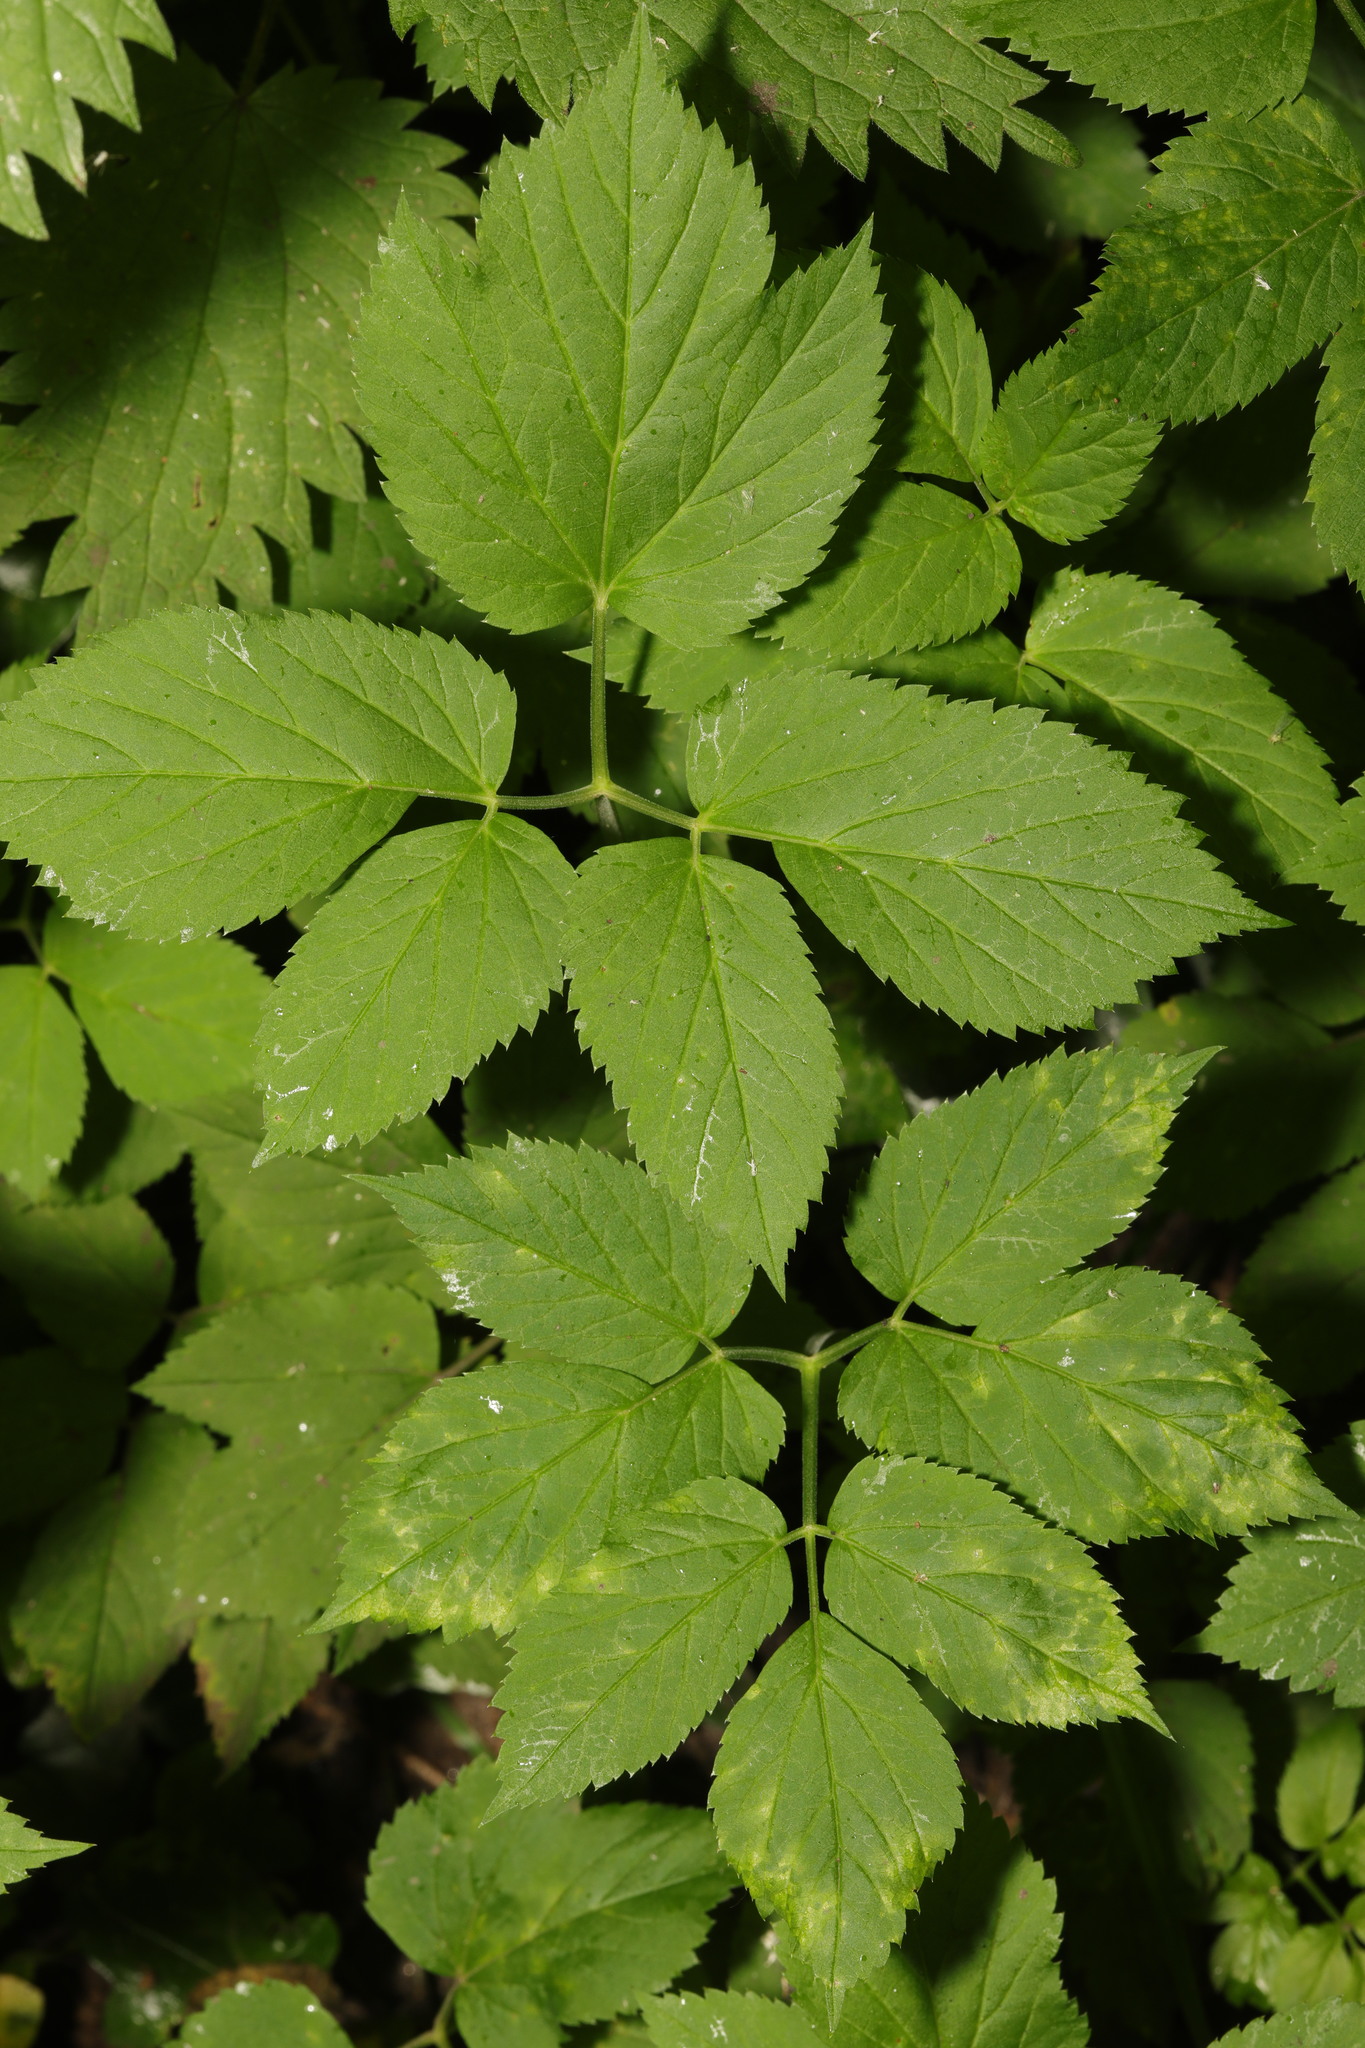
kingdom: Plantae
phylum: Tracheophyta
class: Magnoliopsida
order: Apiales
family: Apiaceae
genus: Aegopodium
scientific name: Aegopodium podagraria
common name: Ground-elder
